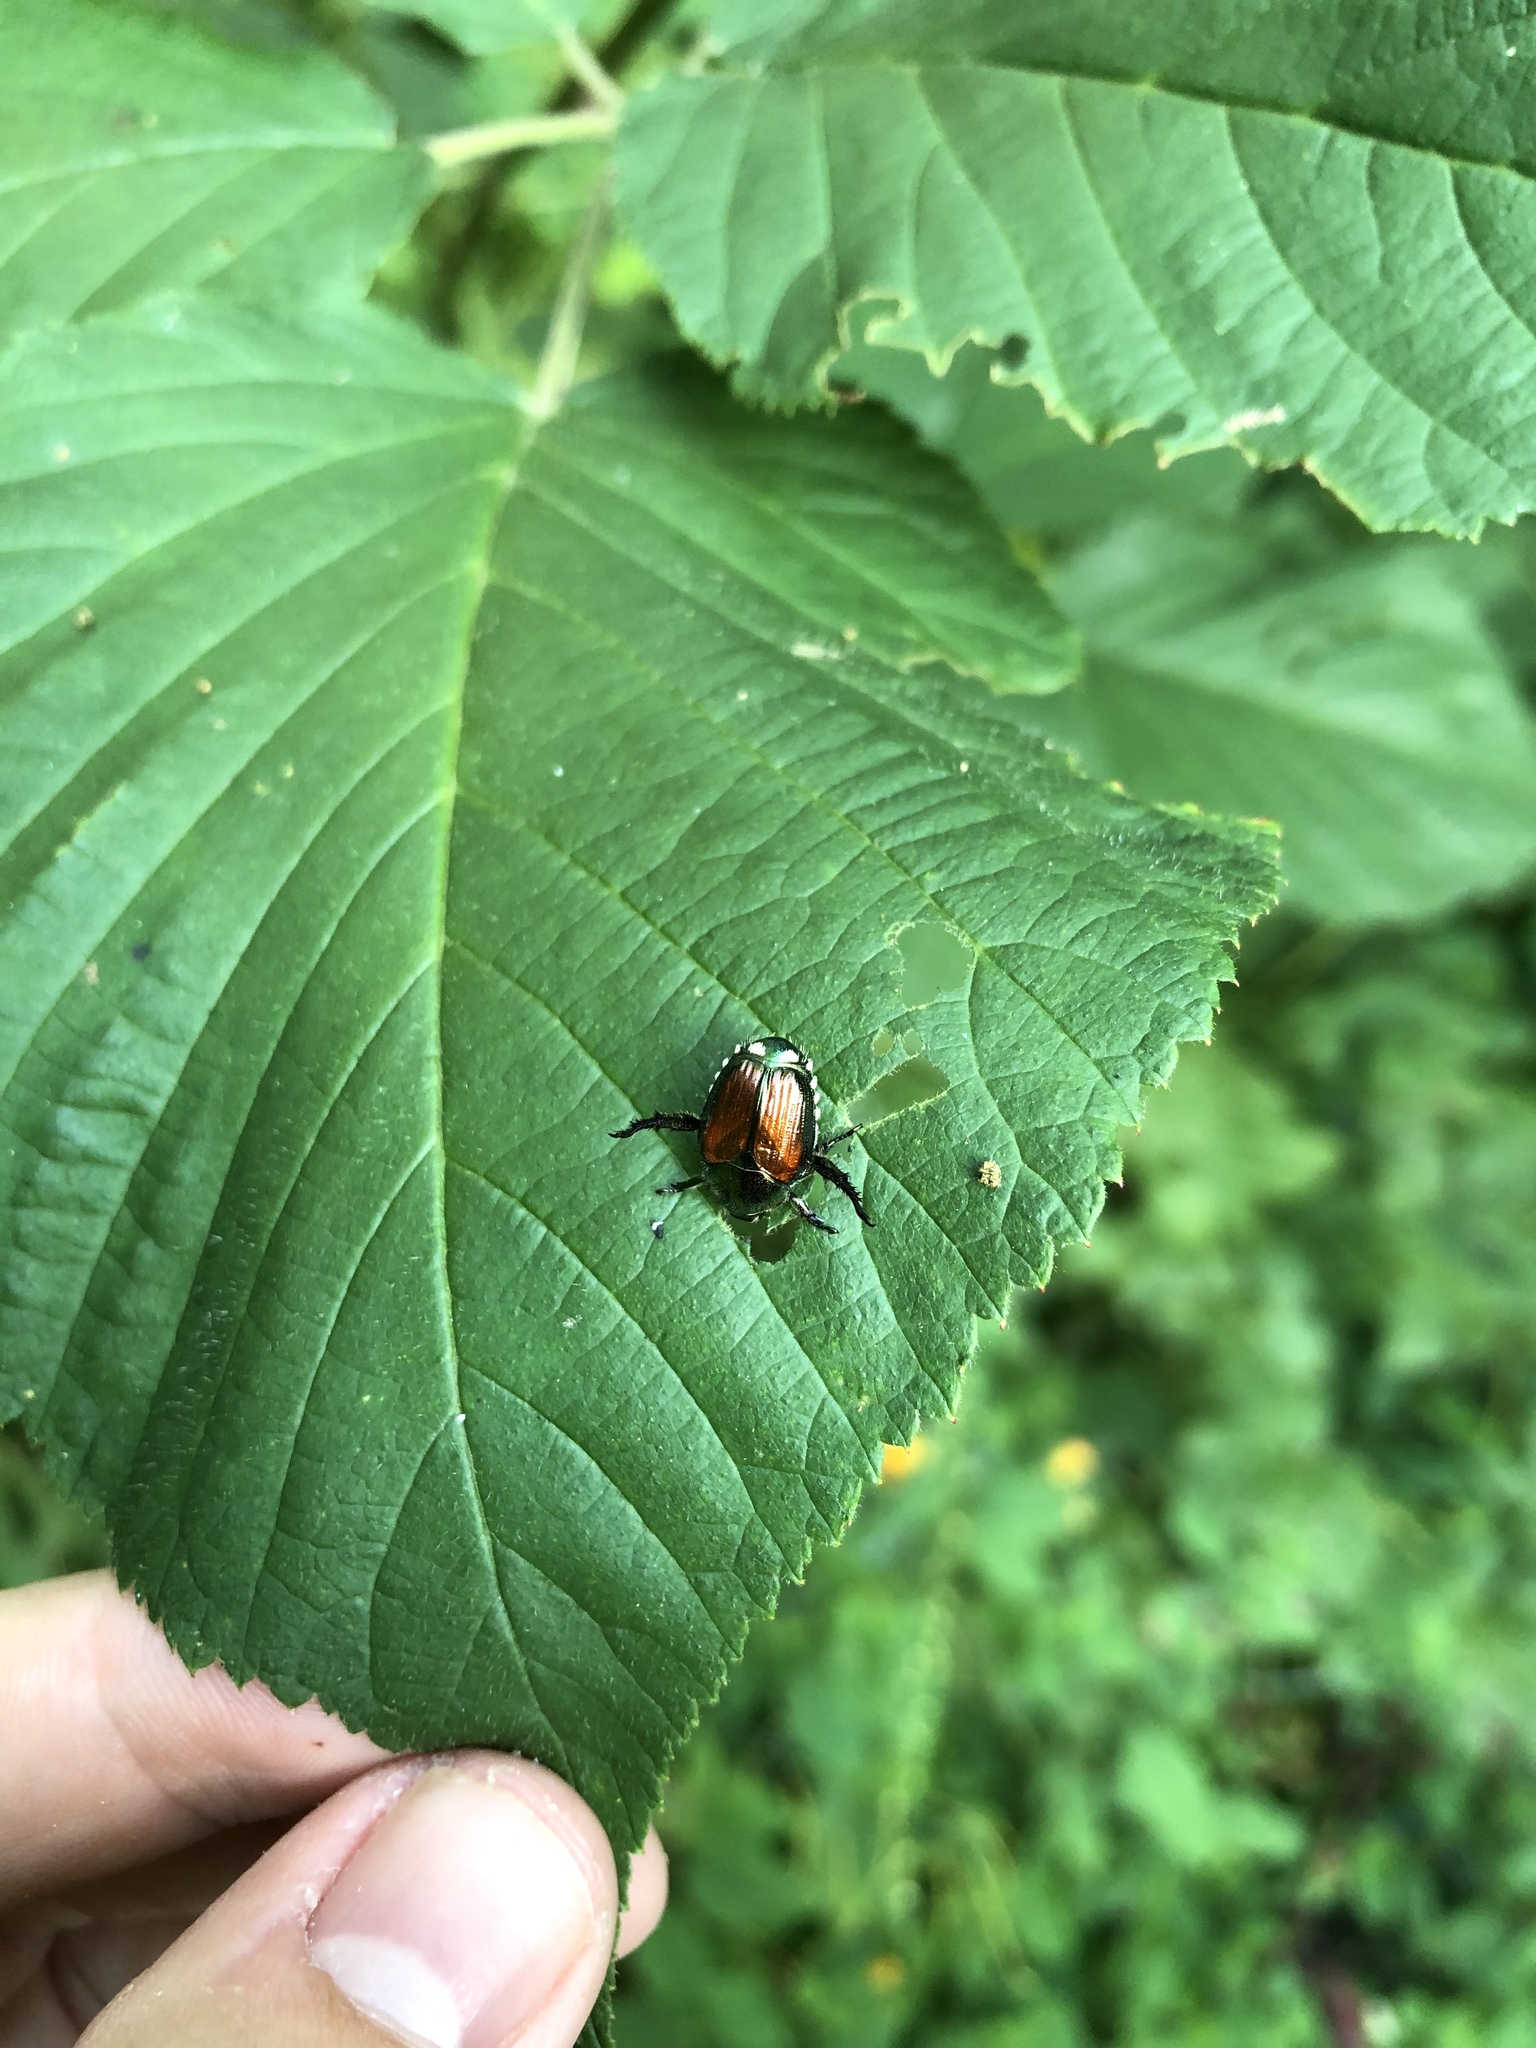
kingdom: Animalia
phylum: Arthropoda
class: Insecta
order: Coleoptera
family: Scarabaeidae
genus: Popillia
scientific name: Popillia japonica
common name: Japanese beetle
